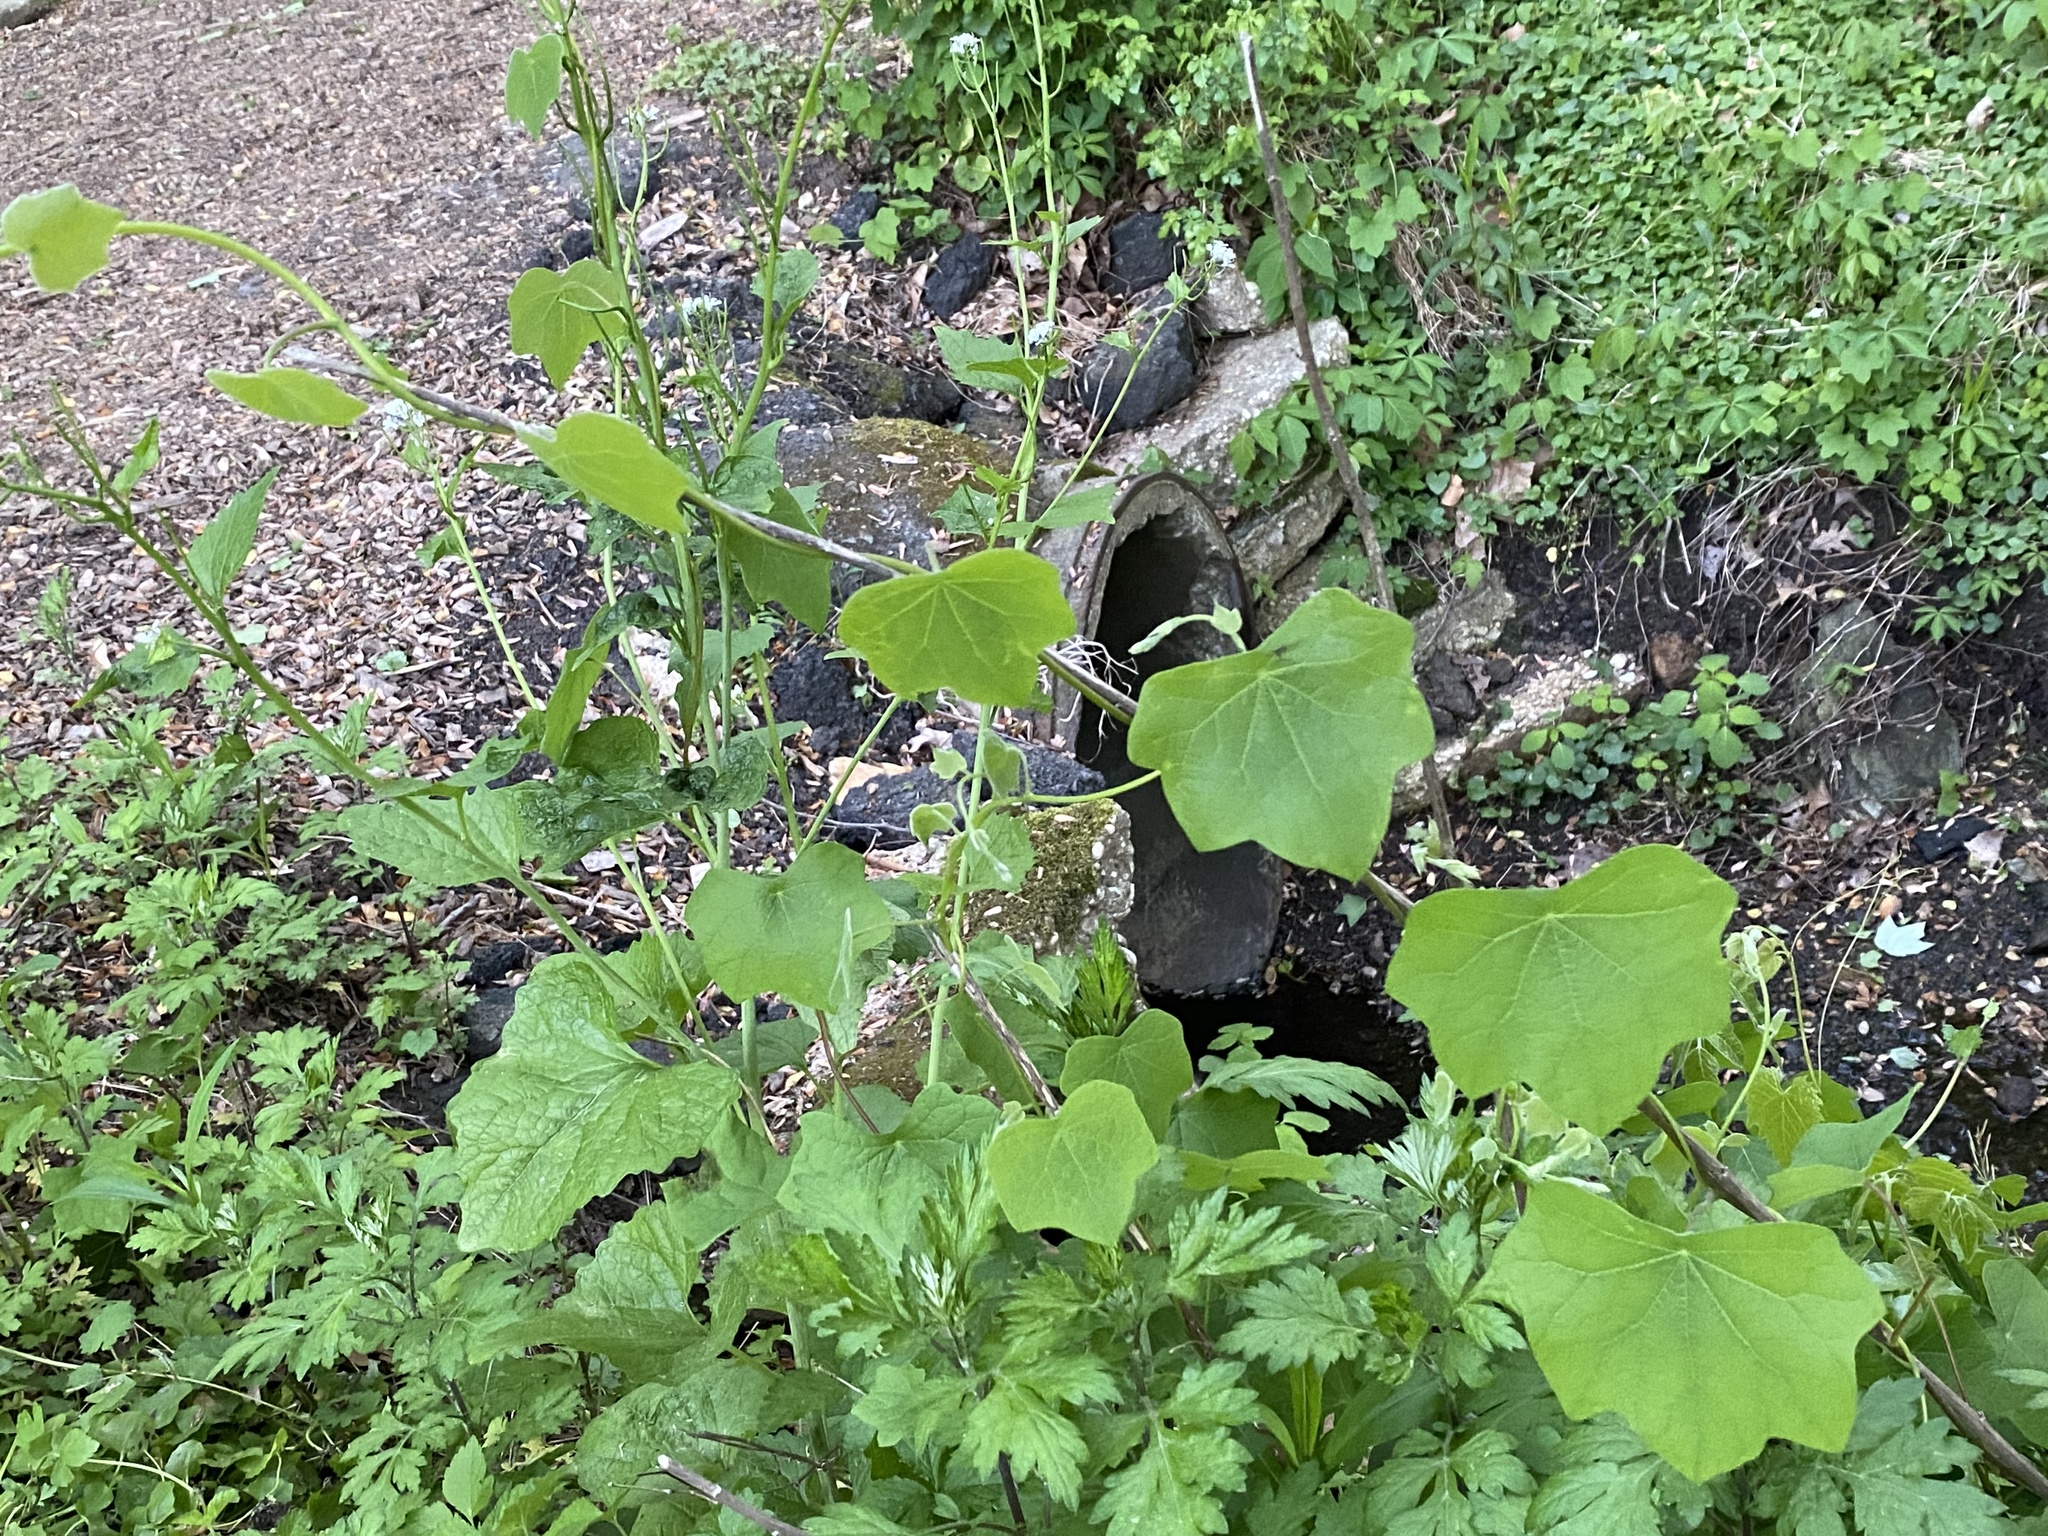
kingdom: Plantae
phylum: Tracheophyta
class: Magnoliopsida
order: Ranunculales
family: Menispermaceae
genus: Menispermum
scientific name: Menispermum canadense
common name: Moonseed
